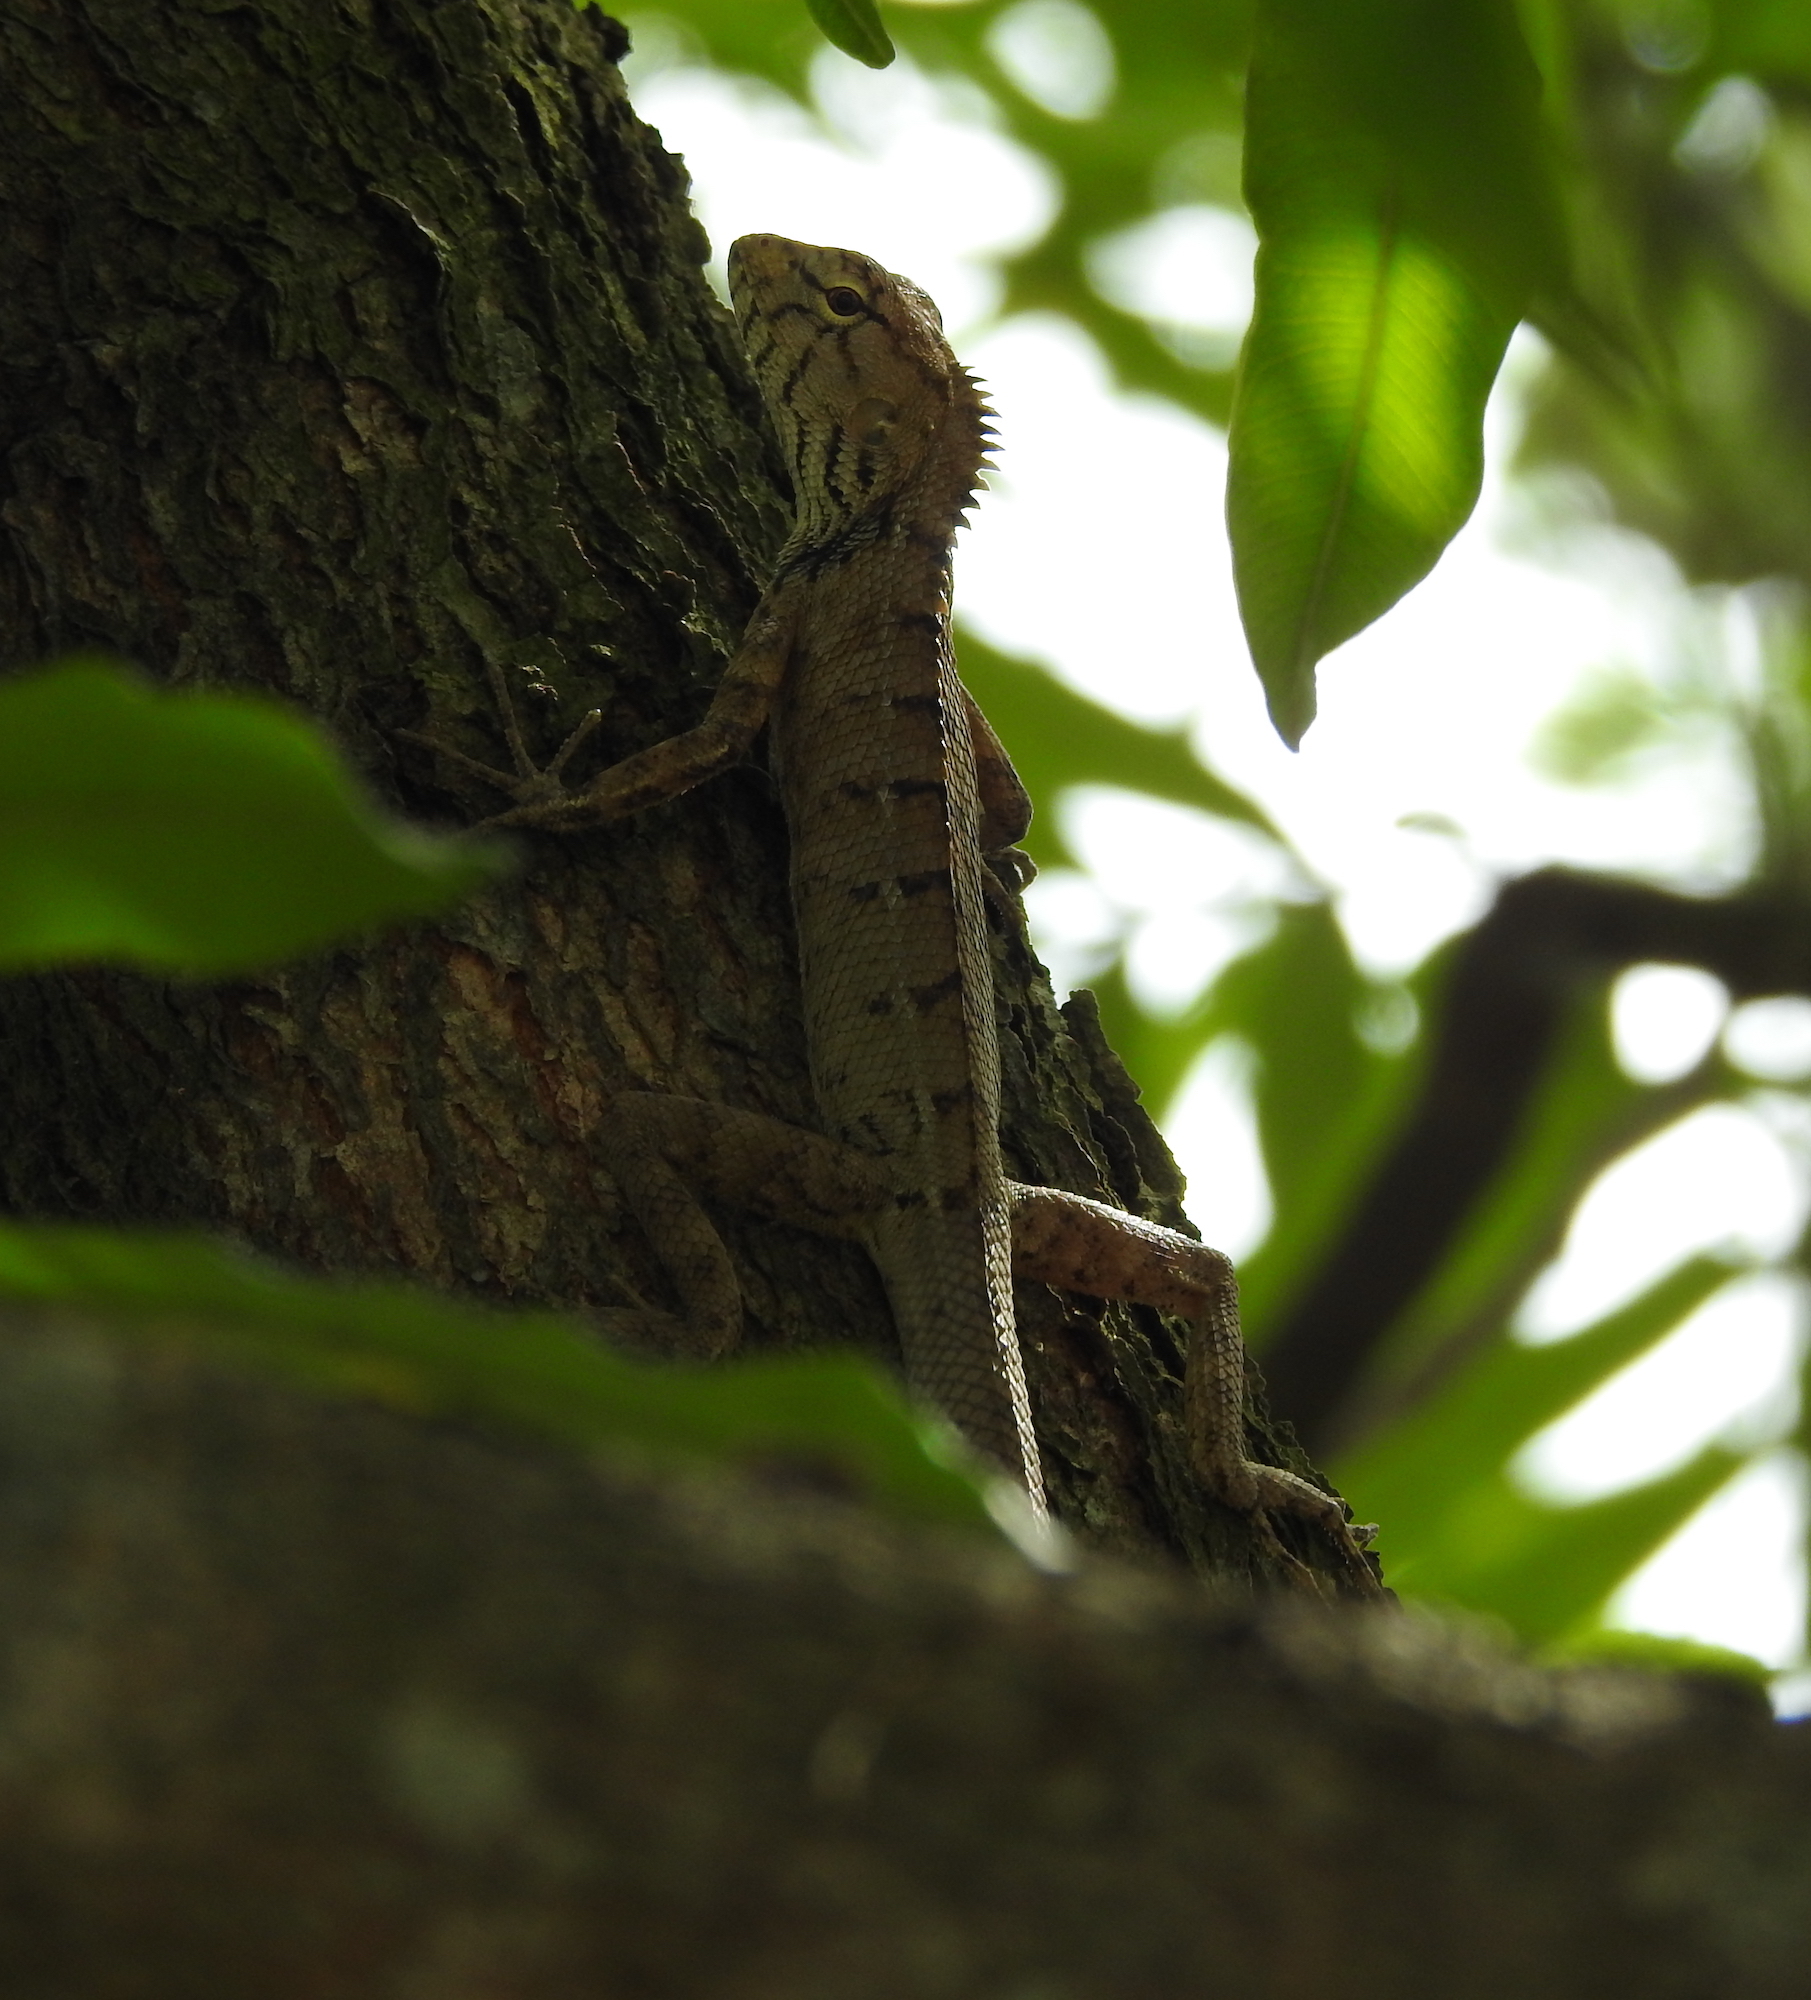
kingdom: Animalia
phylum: Chordata
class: Squamata
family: Agamidae
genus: Calotes
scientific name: Calotes versicolor
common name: Oriental garden lizard
